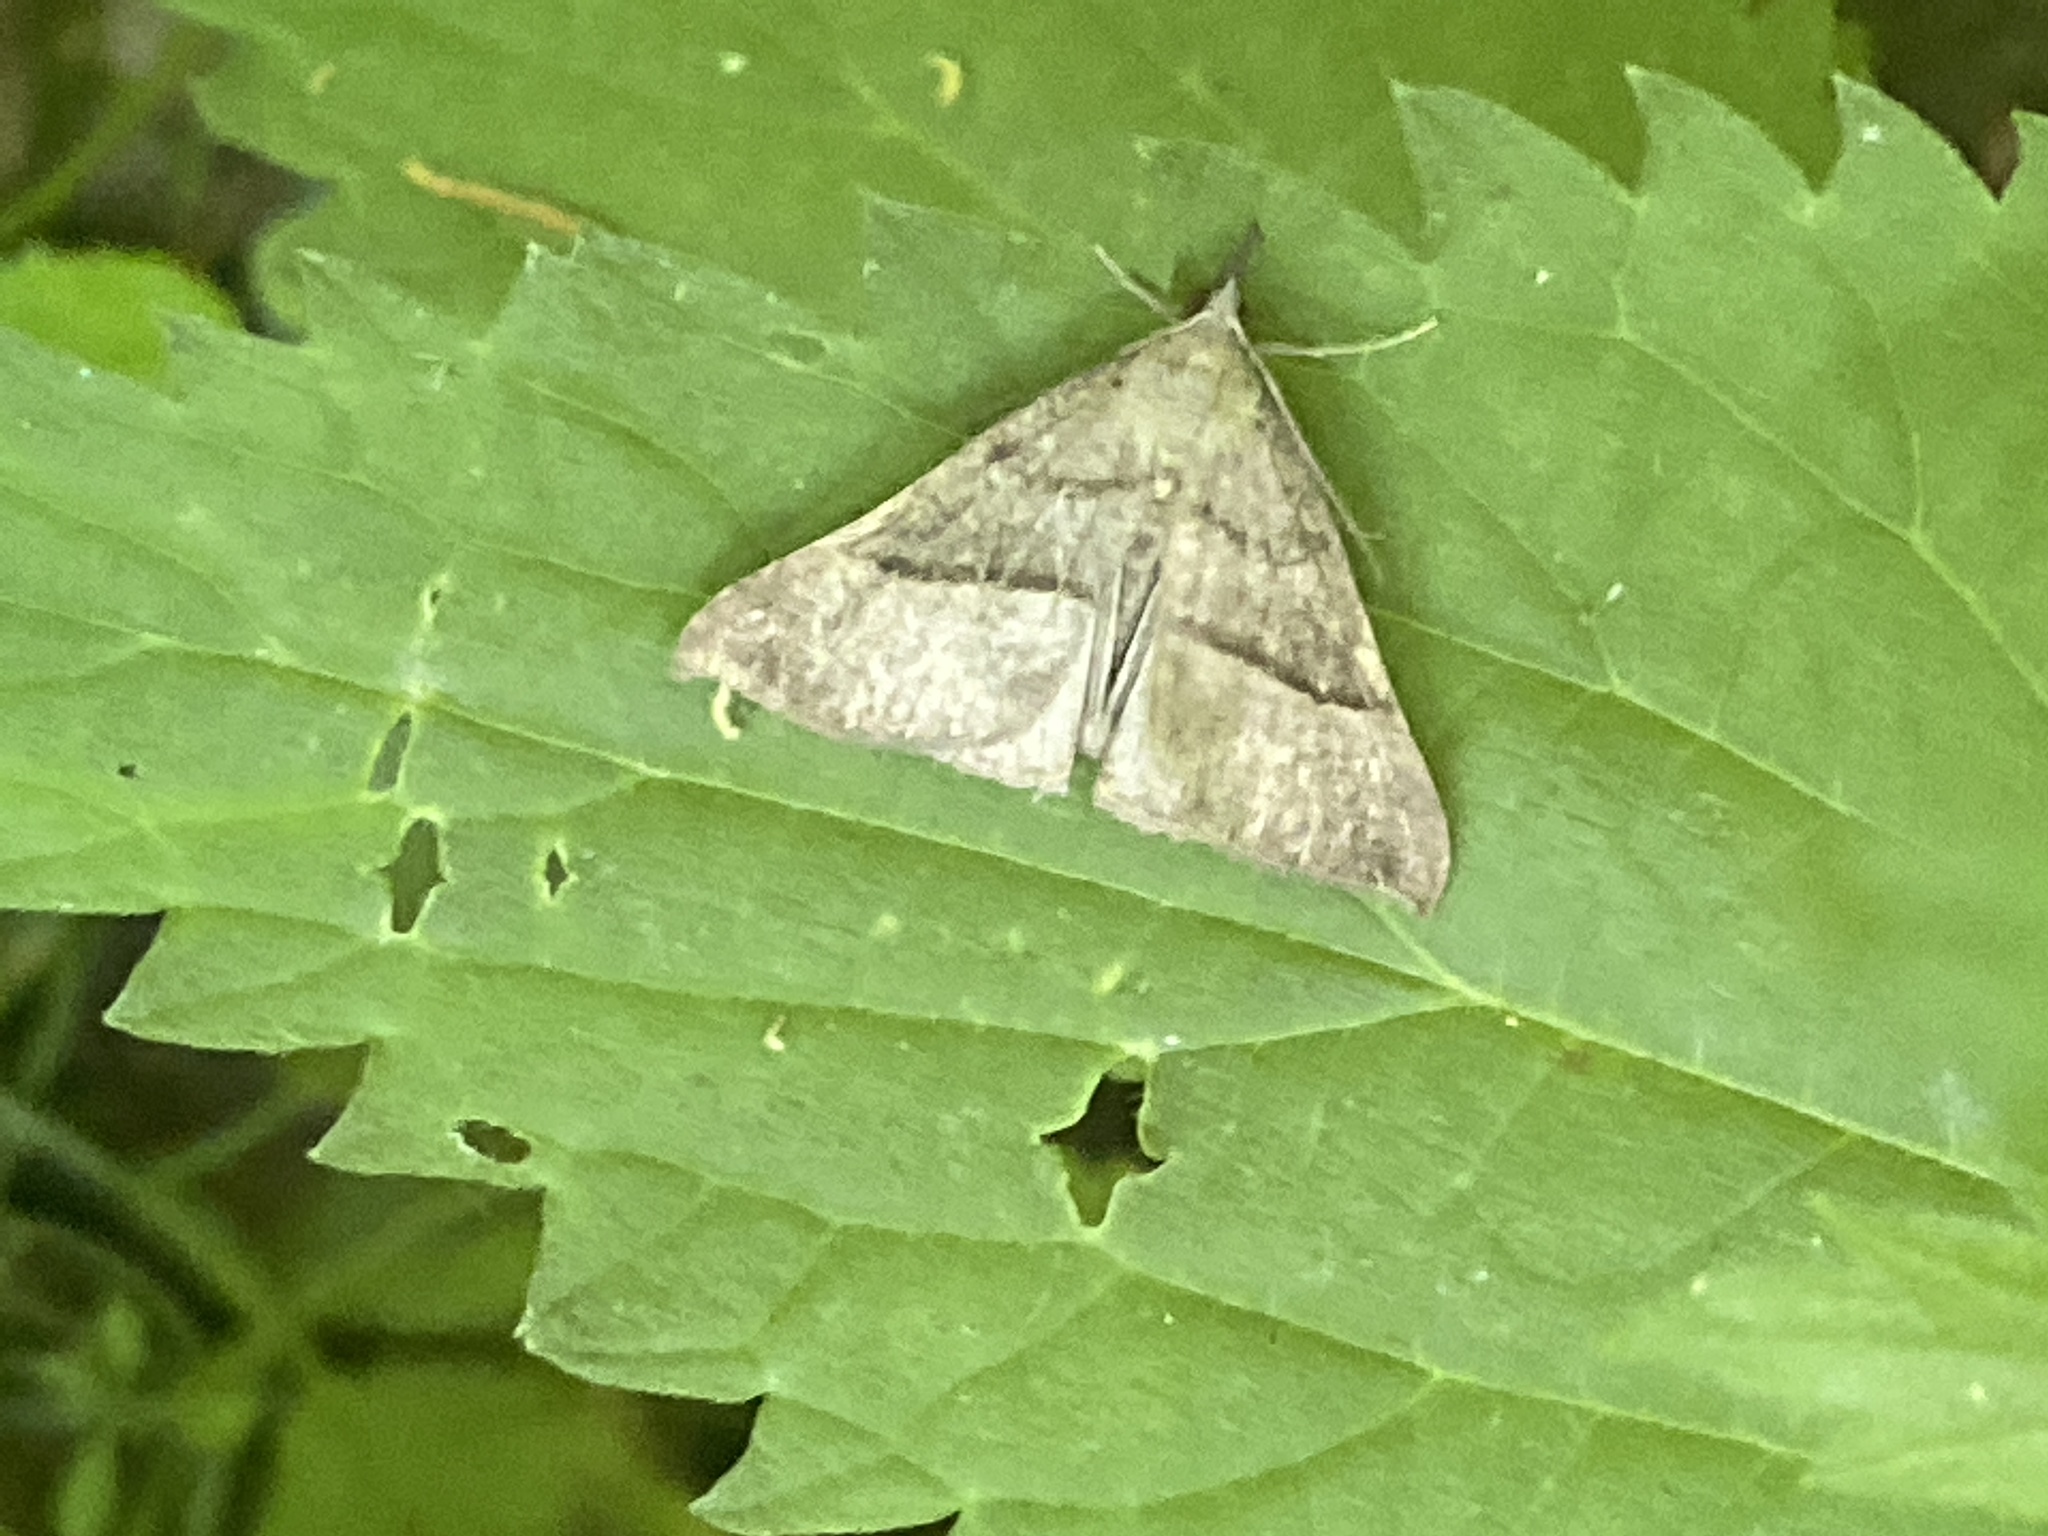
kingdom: Animalia
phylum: Arthropoda
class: Insecta
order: Lepidoptera
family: Erebidae
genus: Hypena
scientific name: Hypena proboscidalis
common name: Snout
